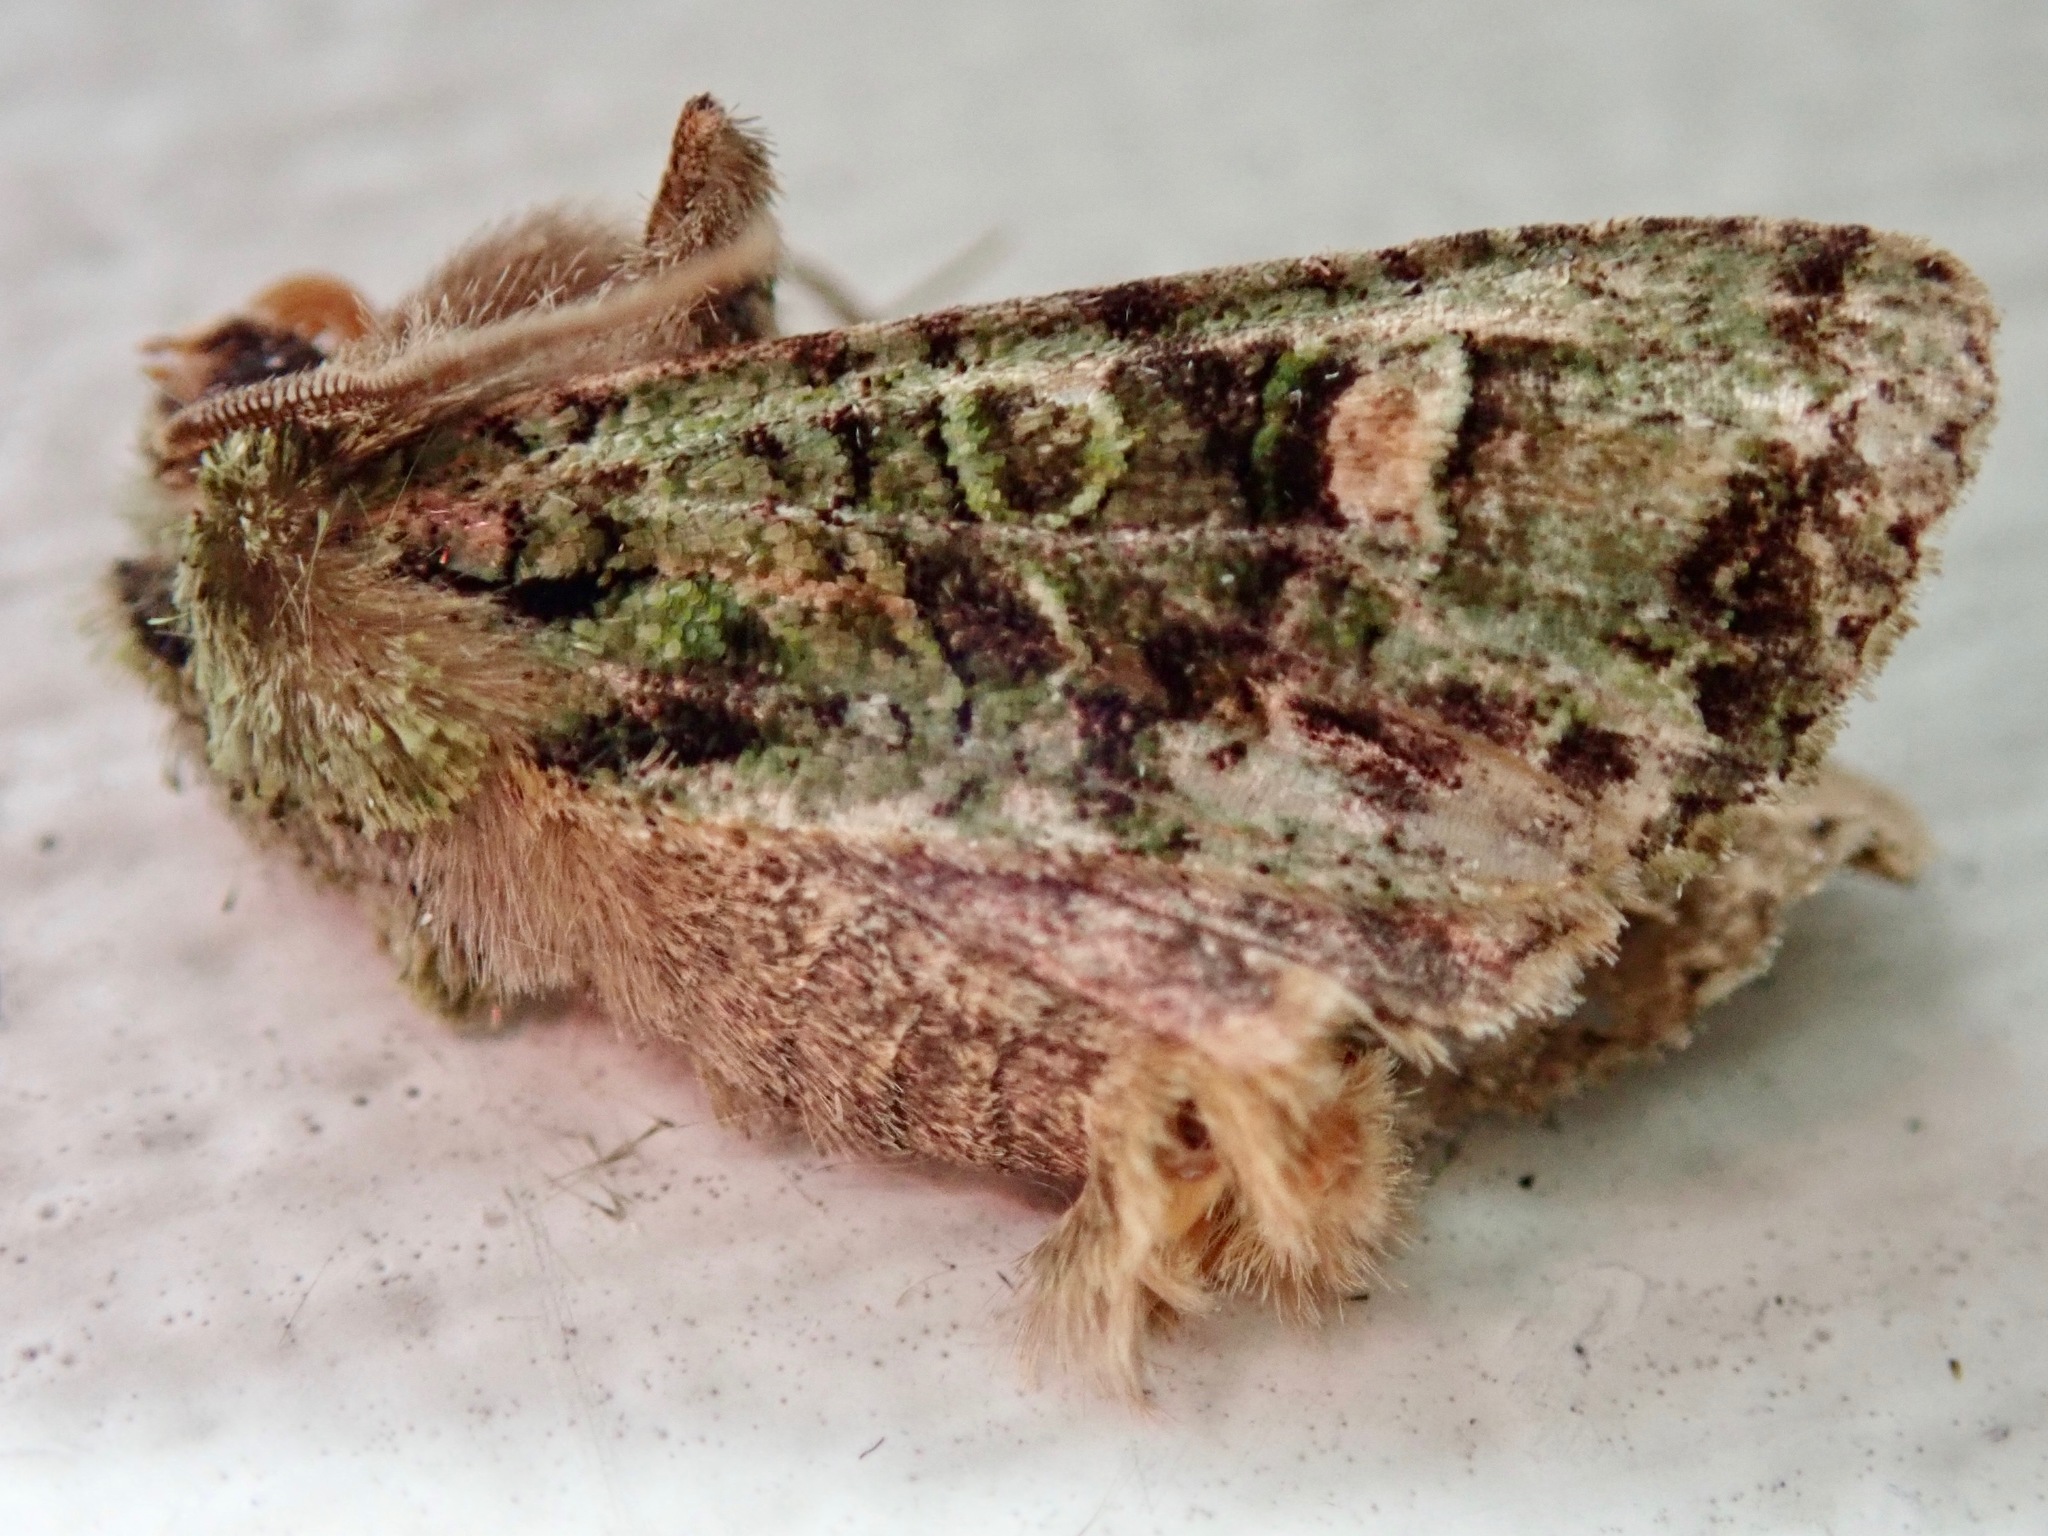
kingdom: Animalia
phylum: Arthropoda
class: Insecta
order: Lepidoptera
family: Noctuidae
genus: Ichneutica
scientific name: Ichneutica
